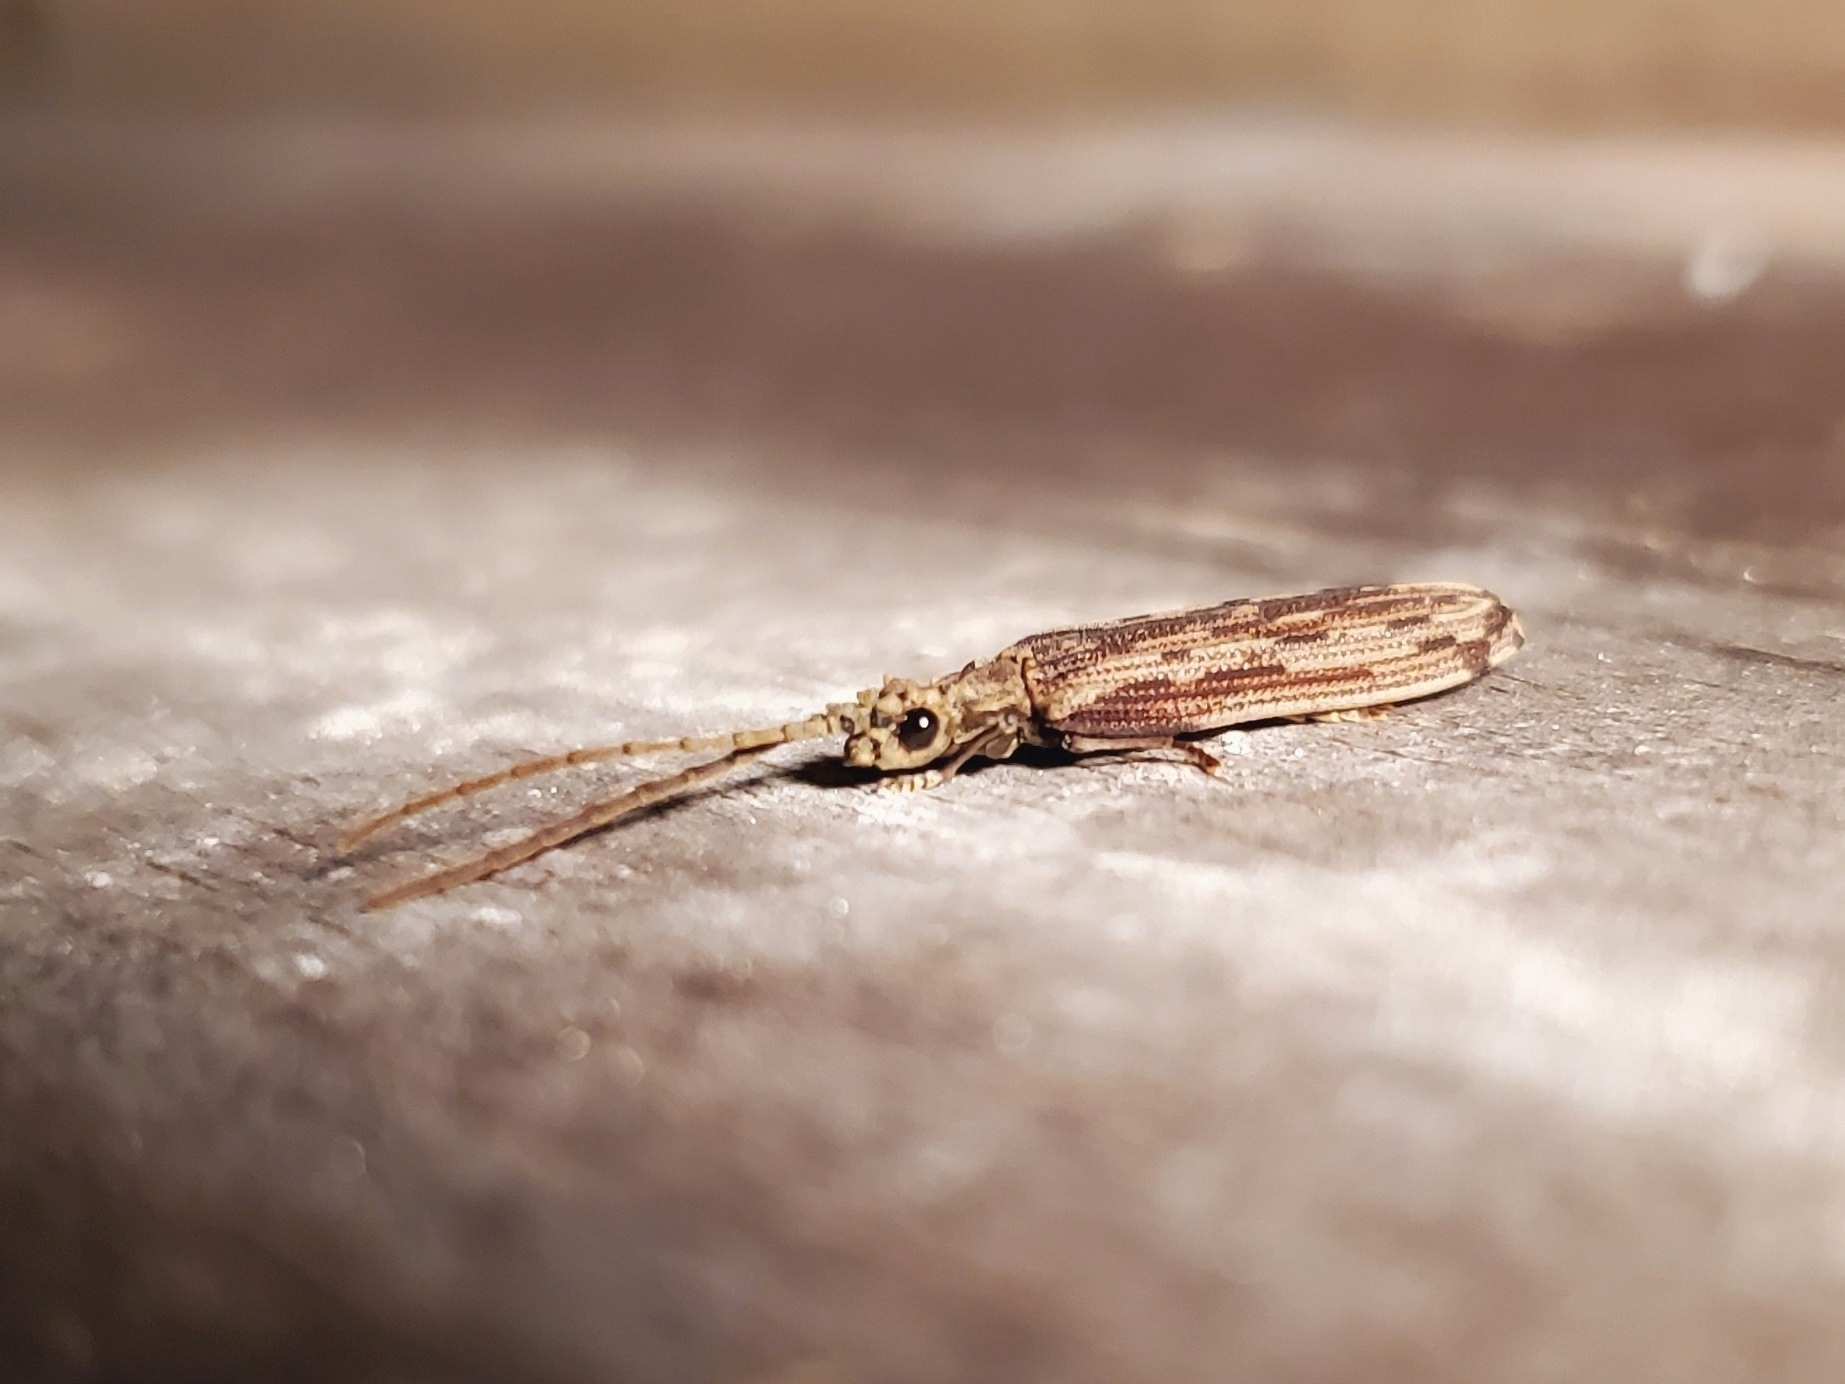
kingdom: Animalia
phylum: Arthropoda
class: Insecta
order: Coleoptera
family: Cupedidae
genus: Tenomerga
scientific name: Tenomerga cinerea
